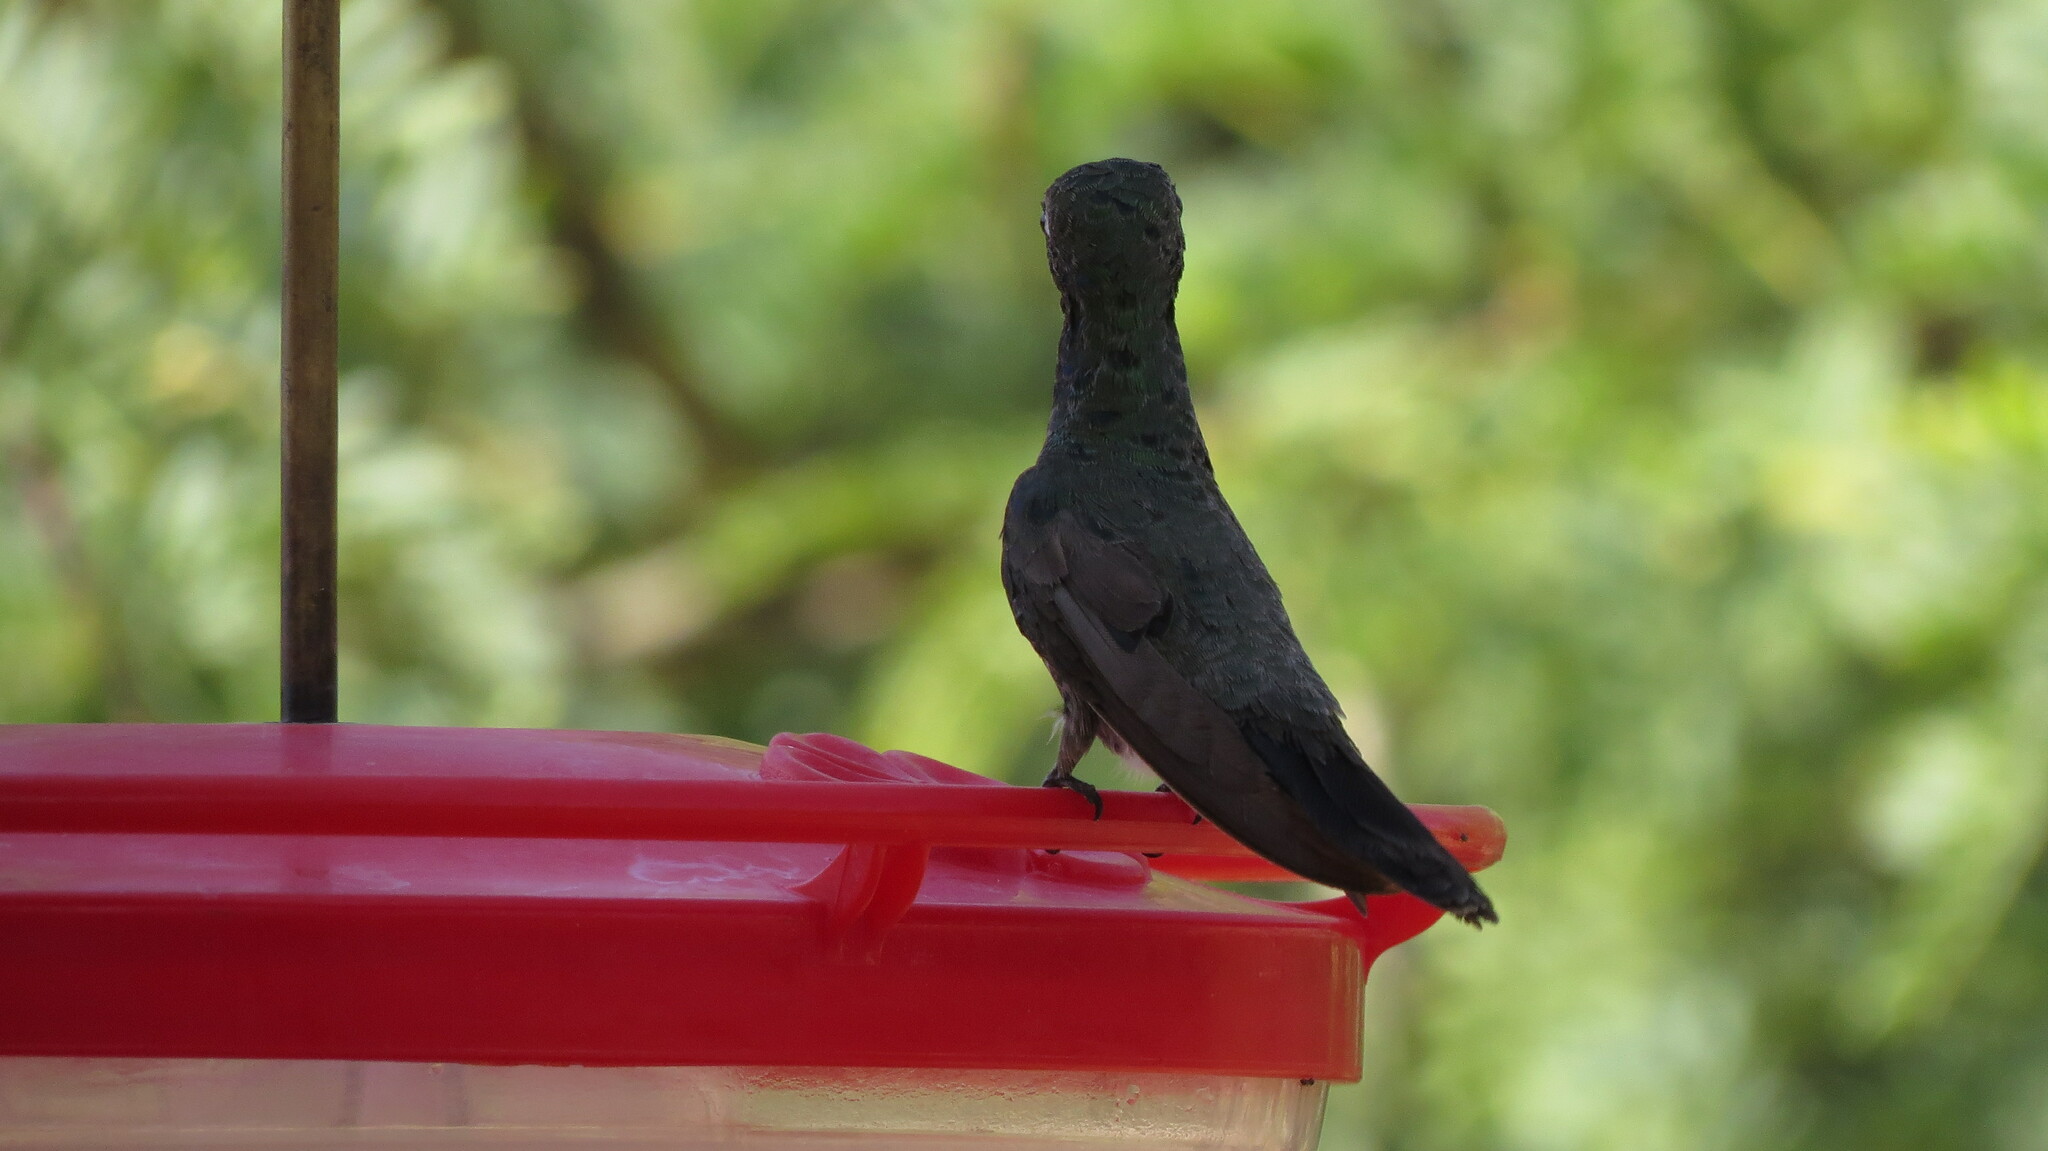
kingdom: Animalia
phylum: Chordata
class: Aves
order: Apodiformes
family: Trochilidae
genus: Cynanthus
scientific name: Cynanthus latirostris
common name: Broad-billed hummingbird
